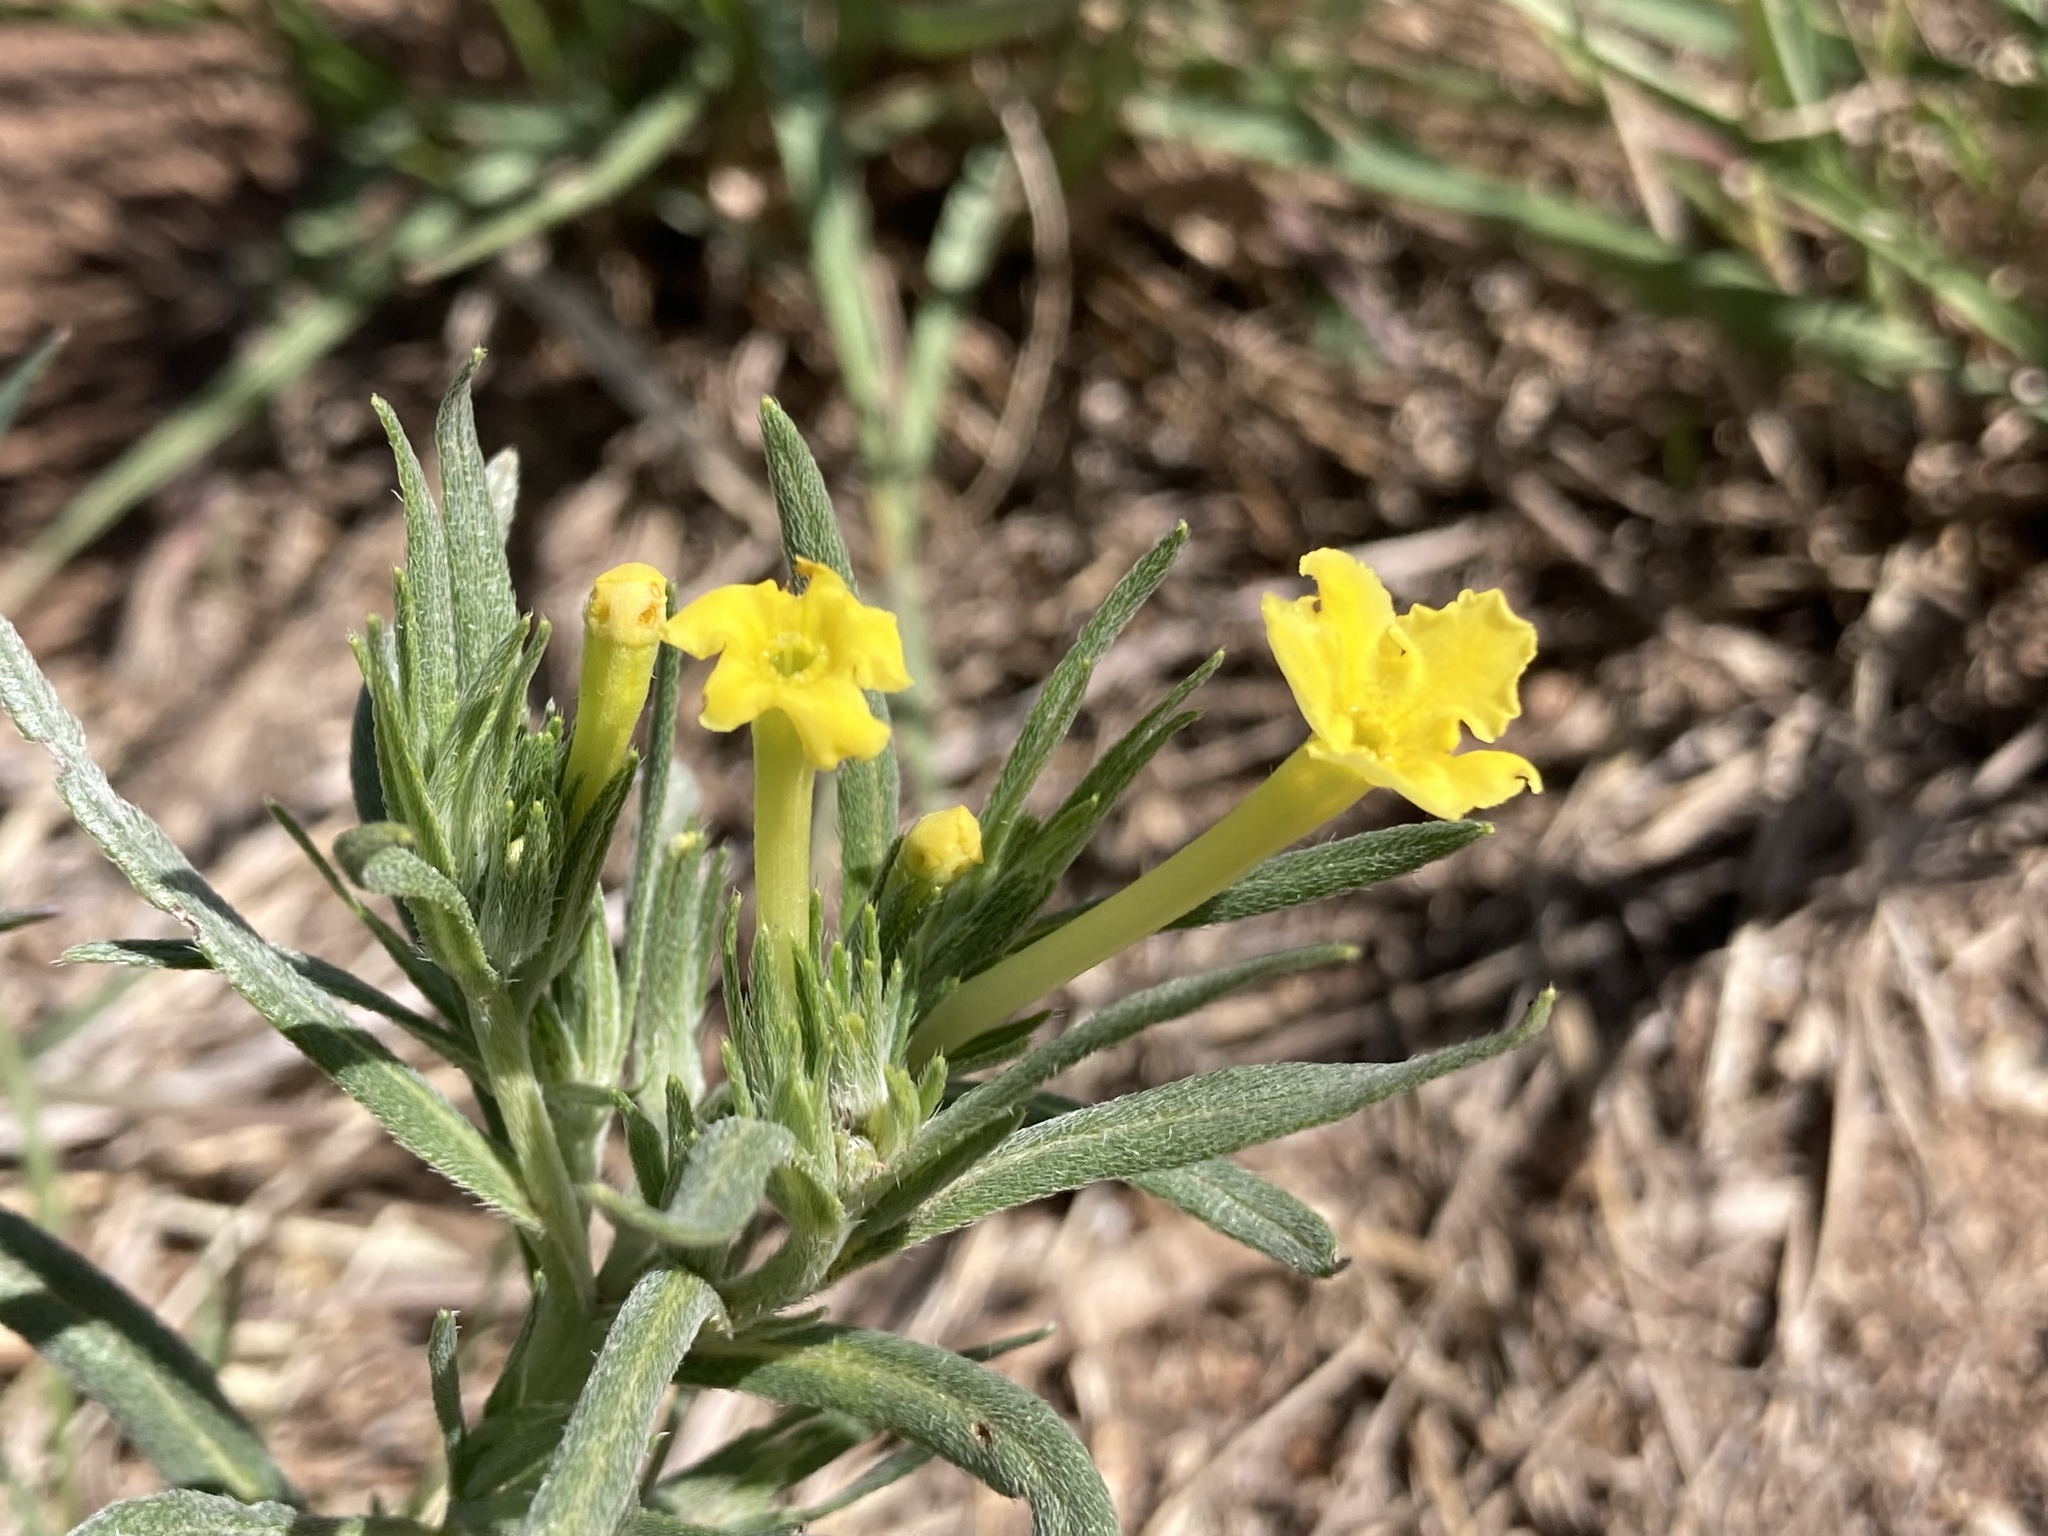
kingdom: Plantae
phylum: Tracheophyta
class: Magnoliopsida
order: Boraginales
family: Boraginaceae
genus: Lithospermum
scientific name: Lithospermum incisum
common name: Fringed gromwell
